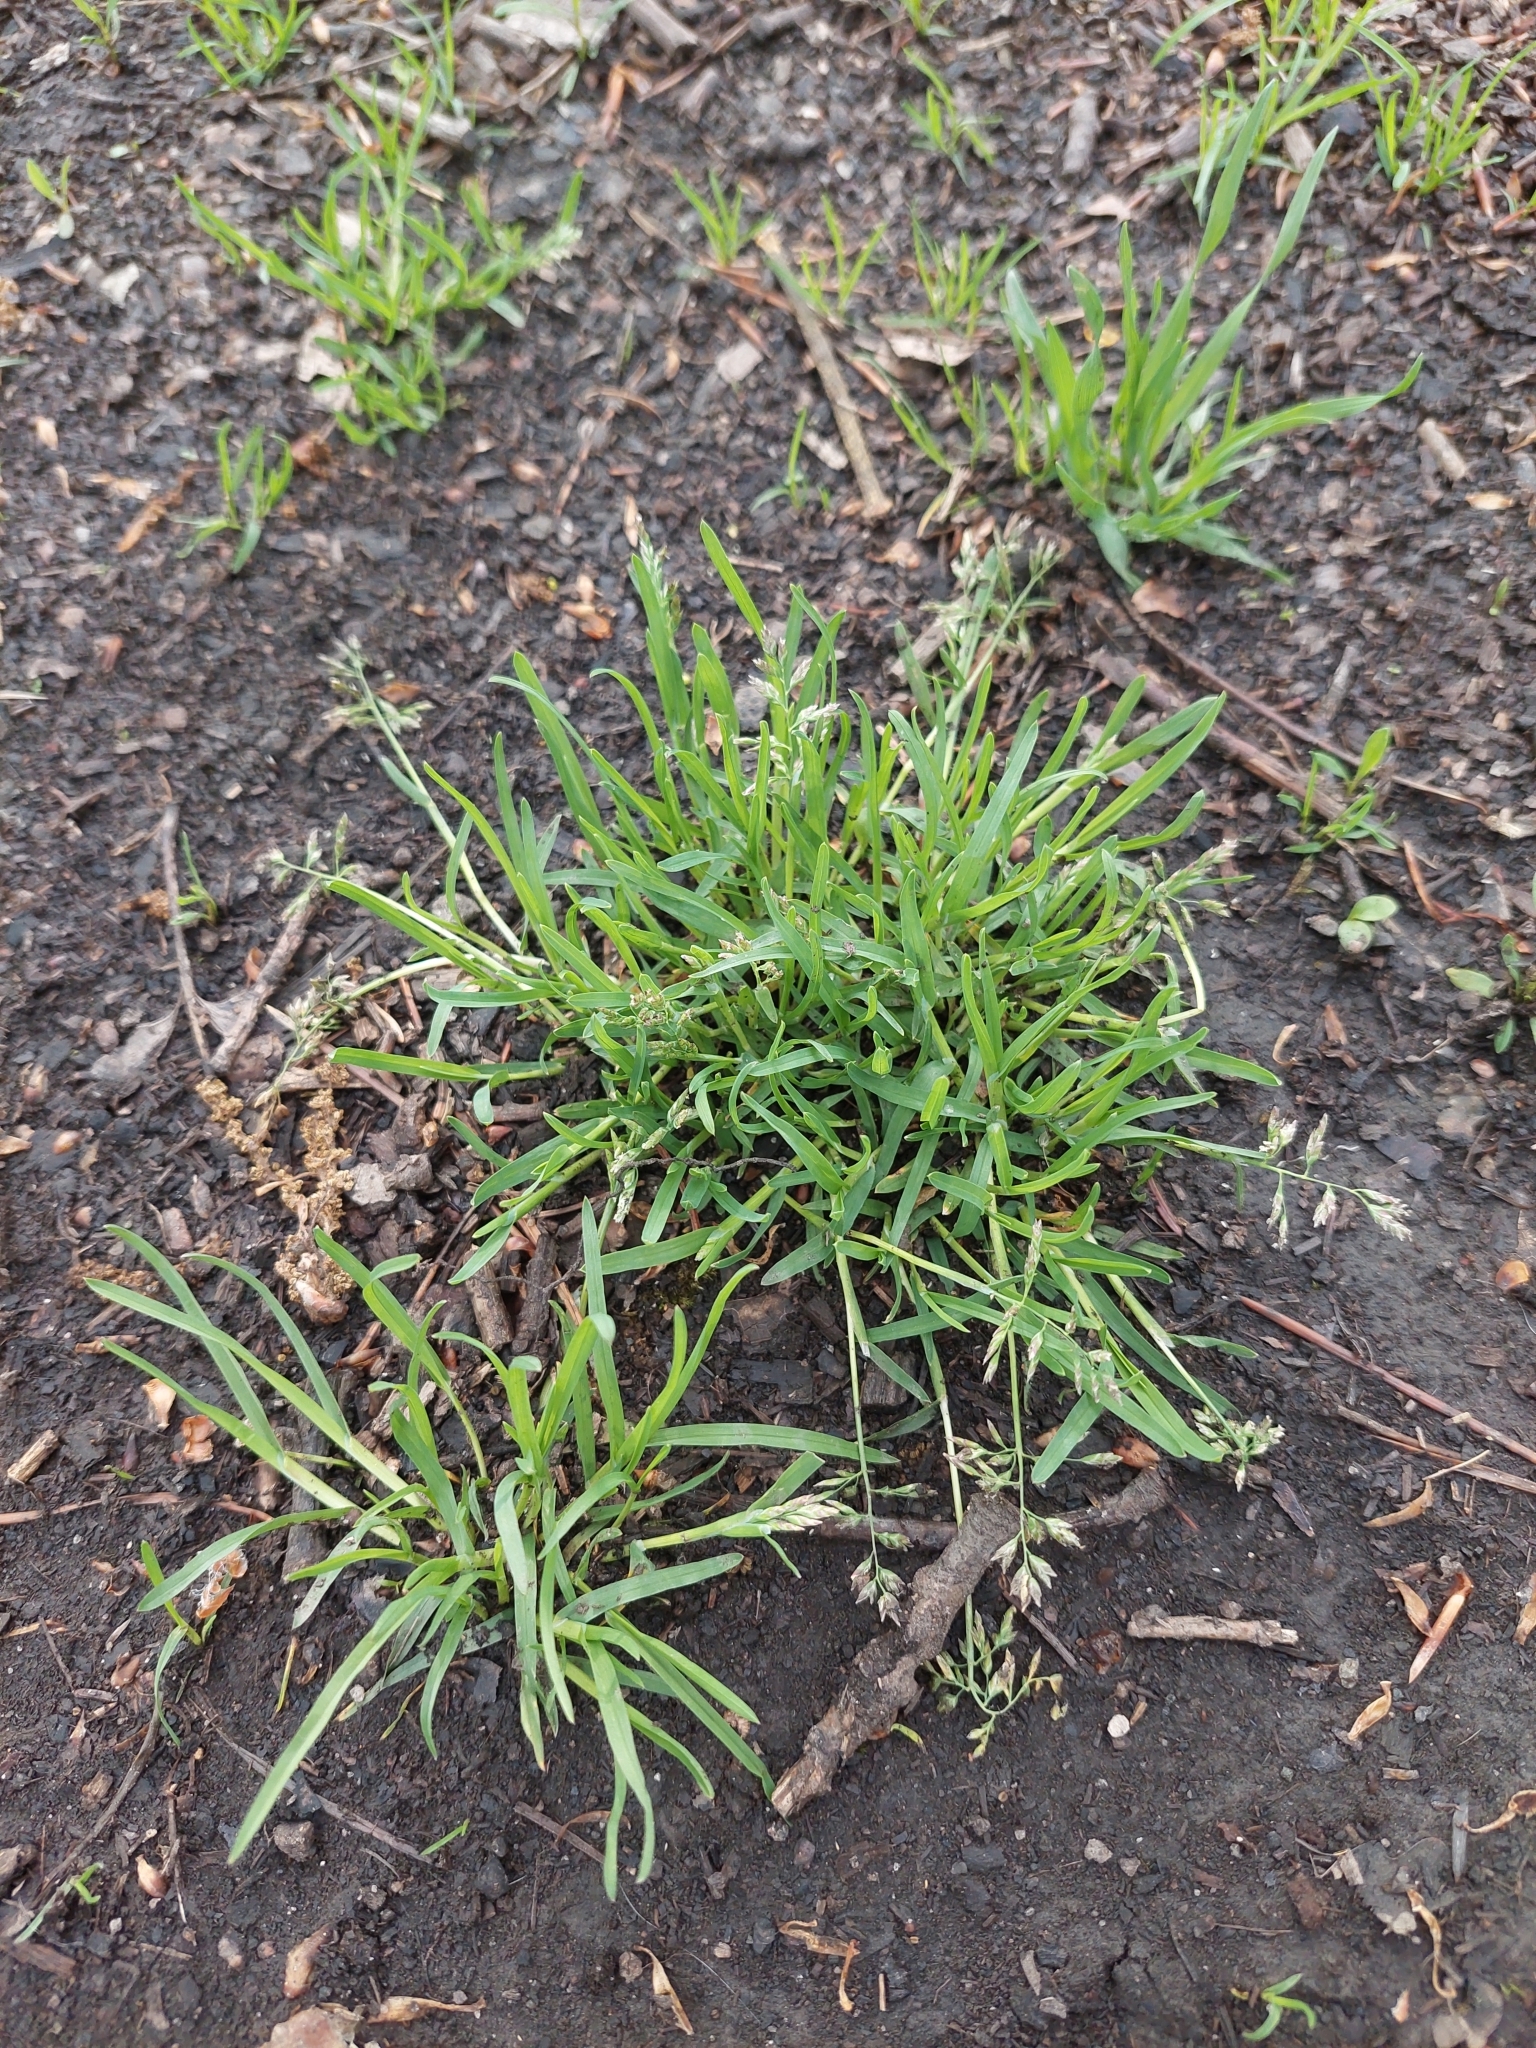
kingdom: Plantae
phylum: Tracheophyta
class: Liliopsida
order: Poales
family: Poaceae
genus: Poa
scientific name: Poa annua
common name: Annual bluegrass
